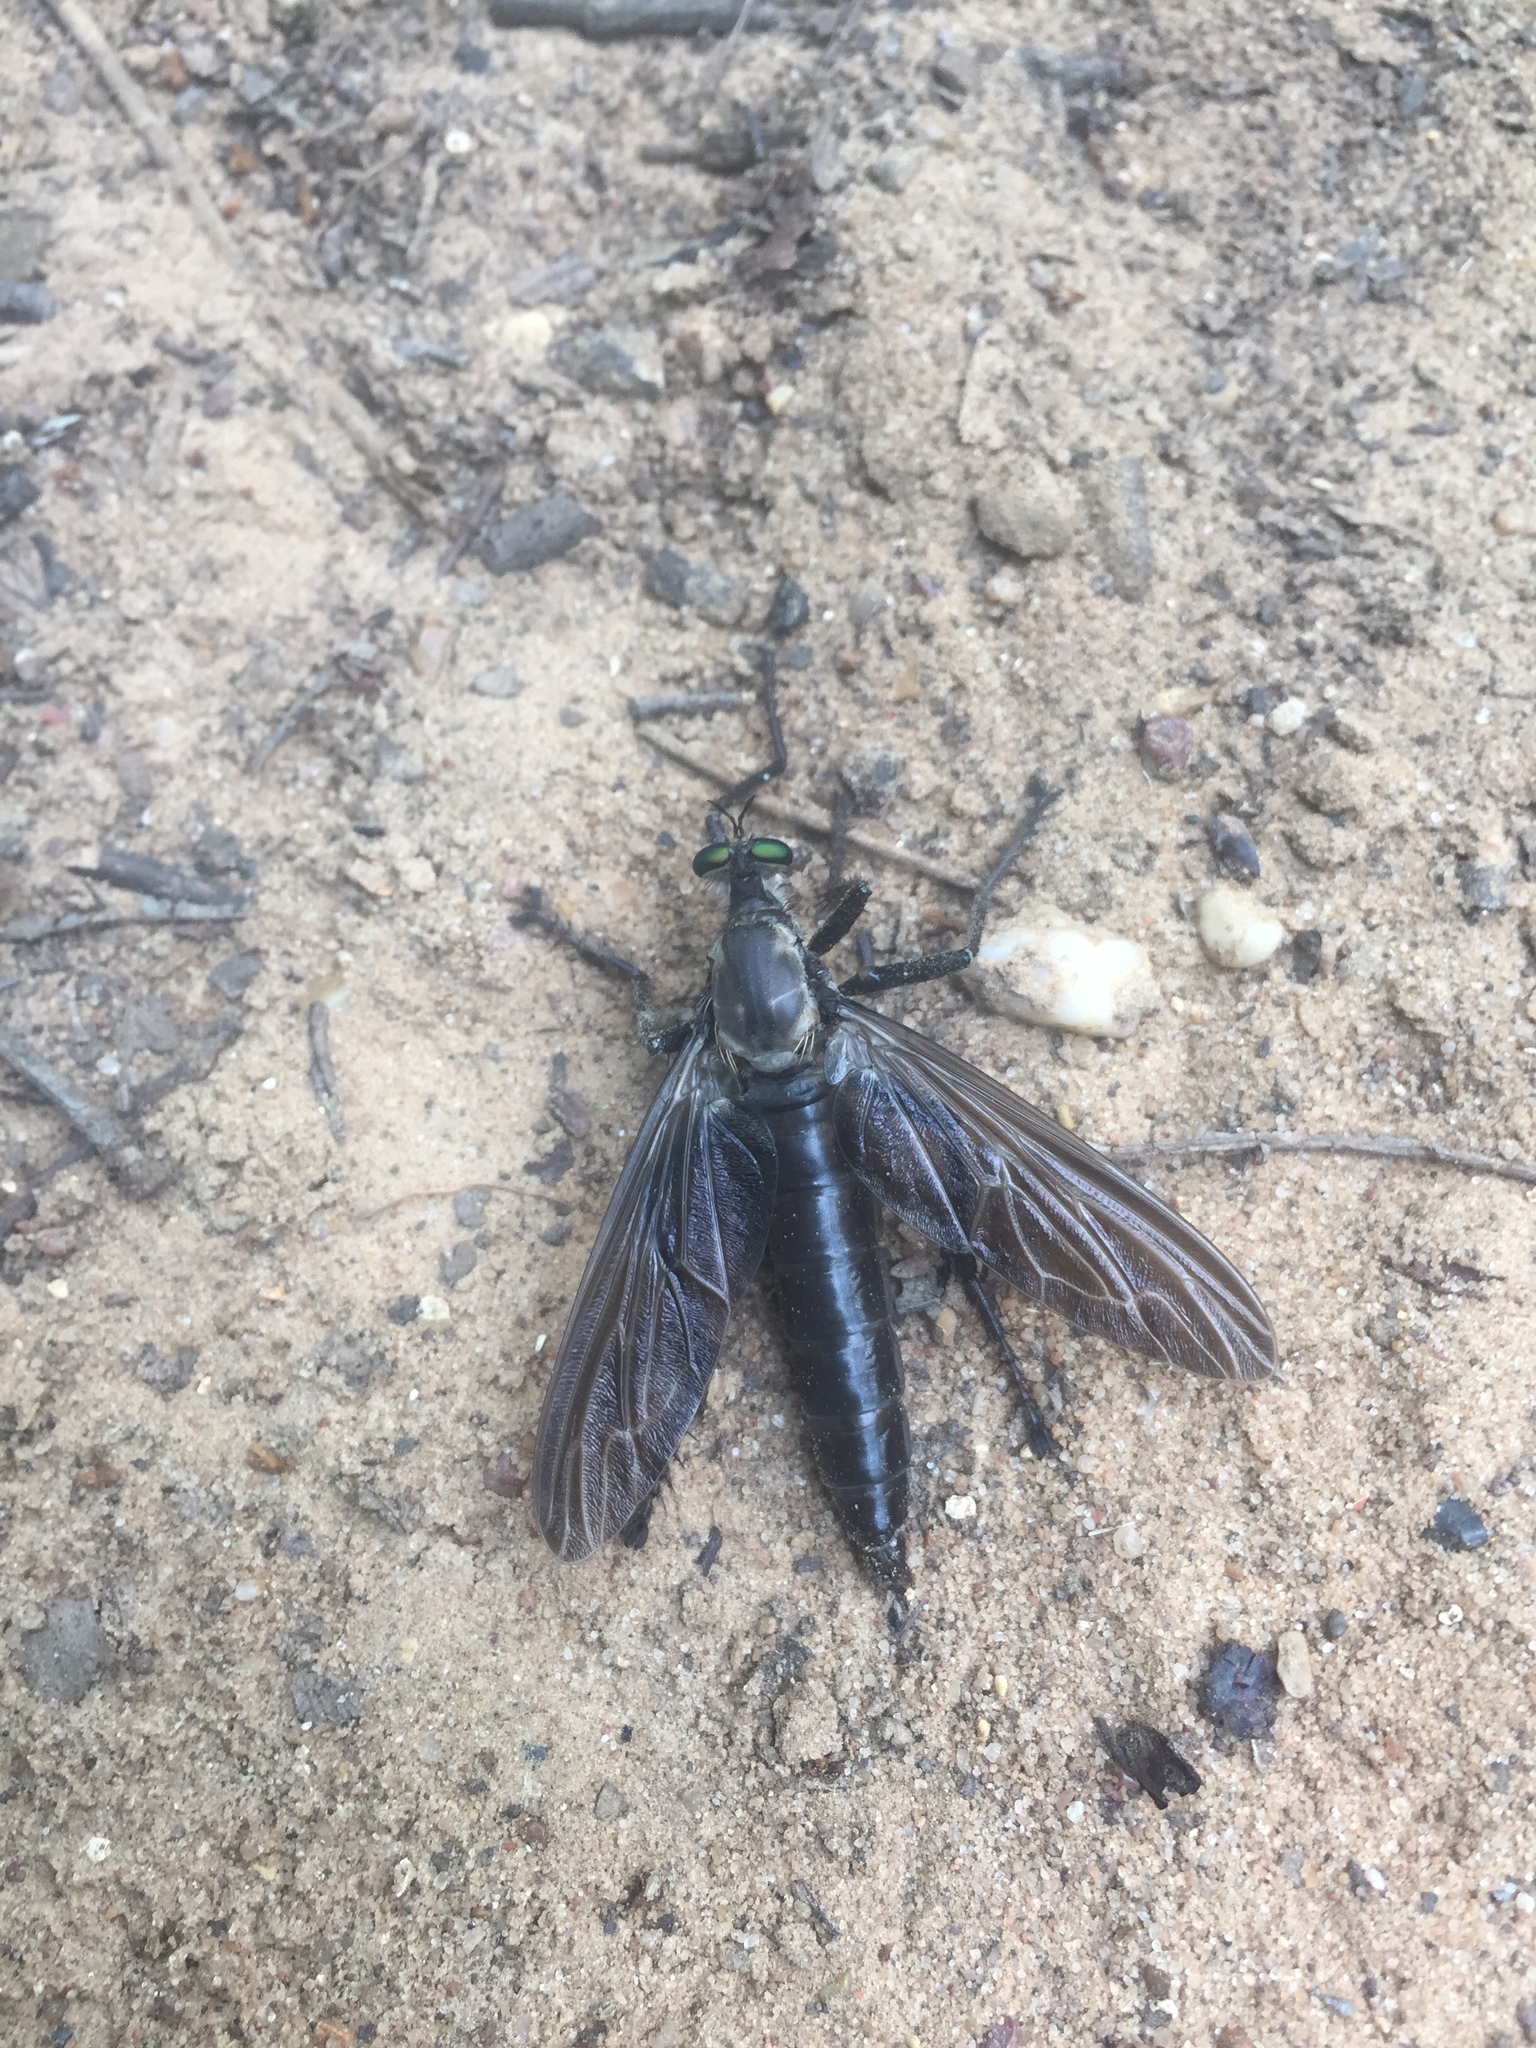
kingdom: Animalia
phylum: Arthropoda
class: Insecta
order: Diptera
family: Asilidae
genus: Microstylum
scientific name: Microstylum morosum
